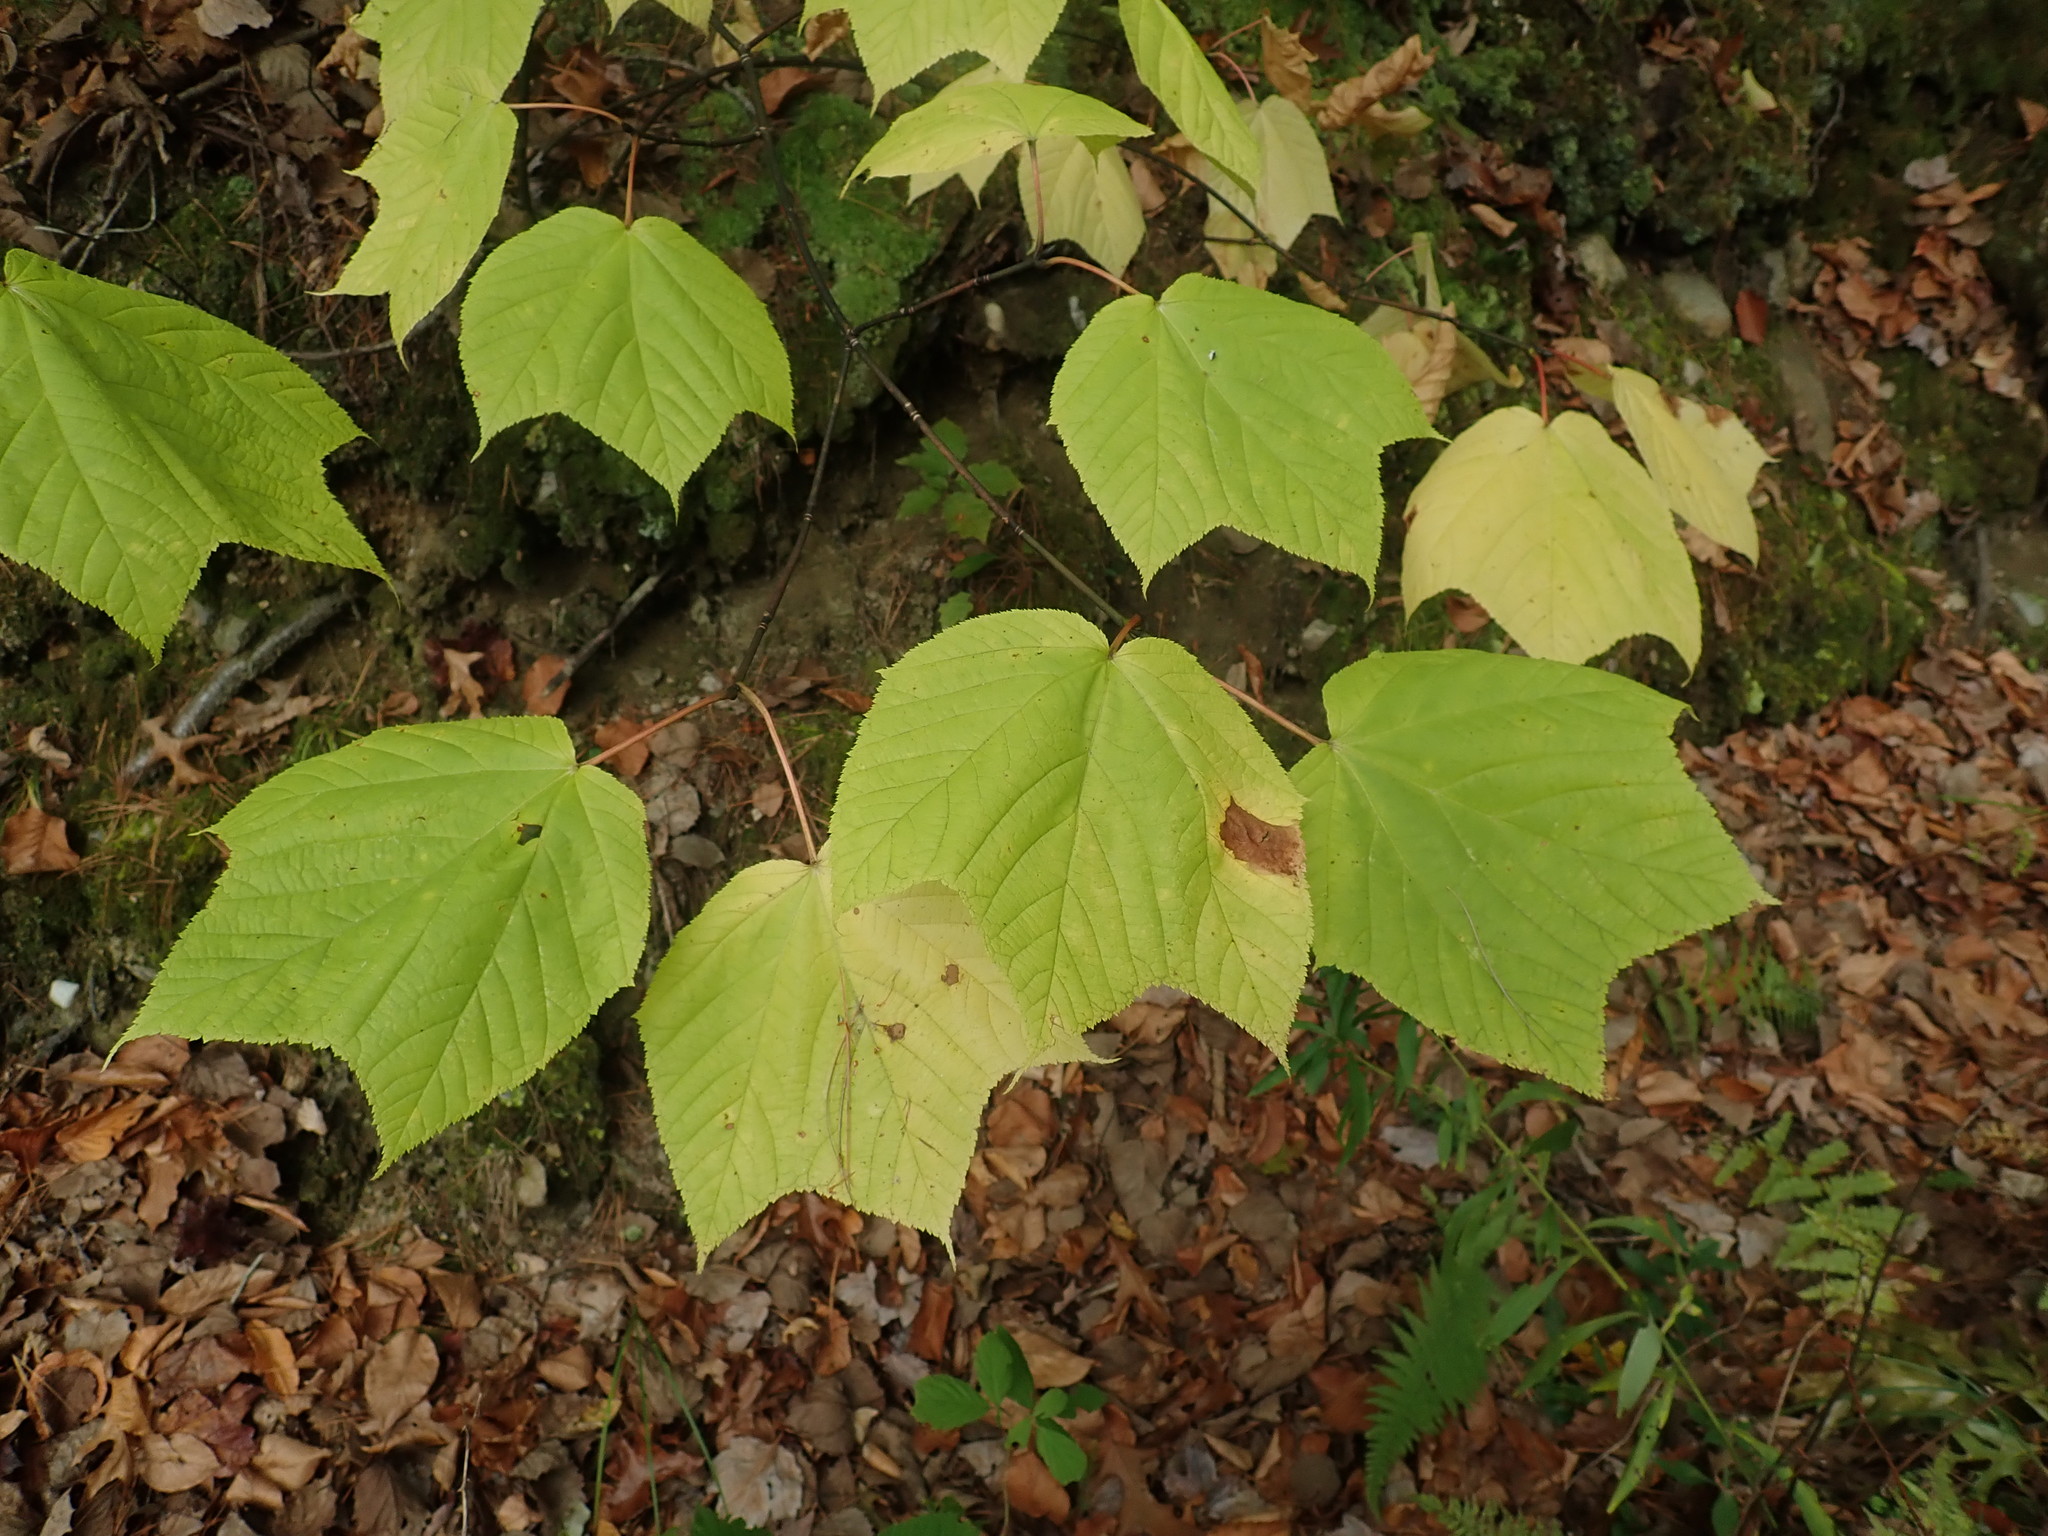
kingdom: Plantae
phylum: Tracheophyta
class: Magnoliopsida
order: Sapindales
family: Sapindaceae
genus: Acer
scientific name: Acer pensylvanicum
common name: Moosewood
